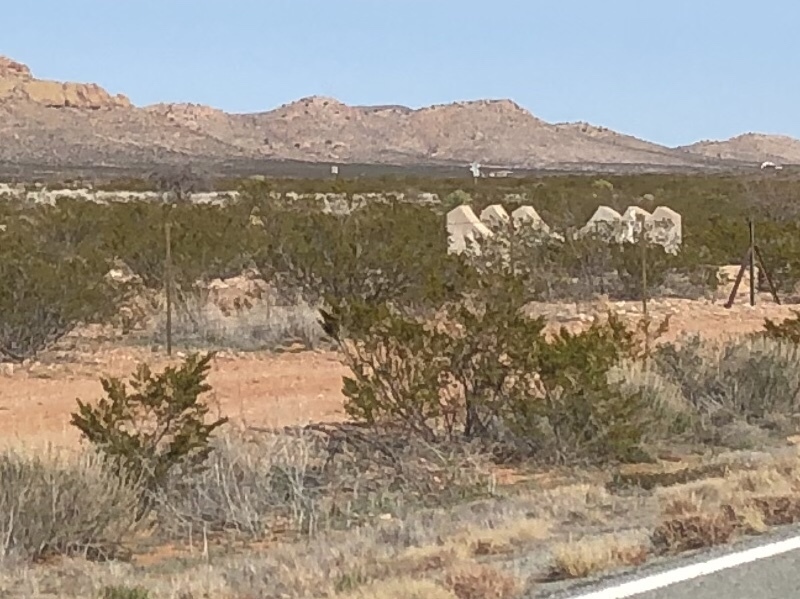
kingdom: Plantae
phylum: Tracheophyta
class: Magnoliopsida
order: Zygophyllales
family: Zygophyllaceae
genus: Larrea
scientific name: Larrea tridentata
